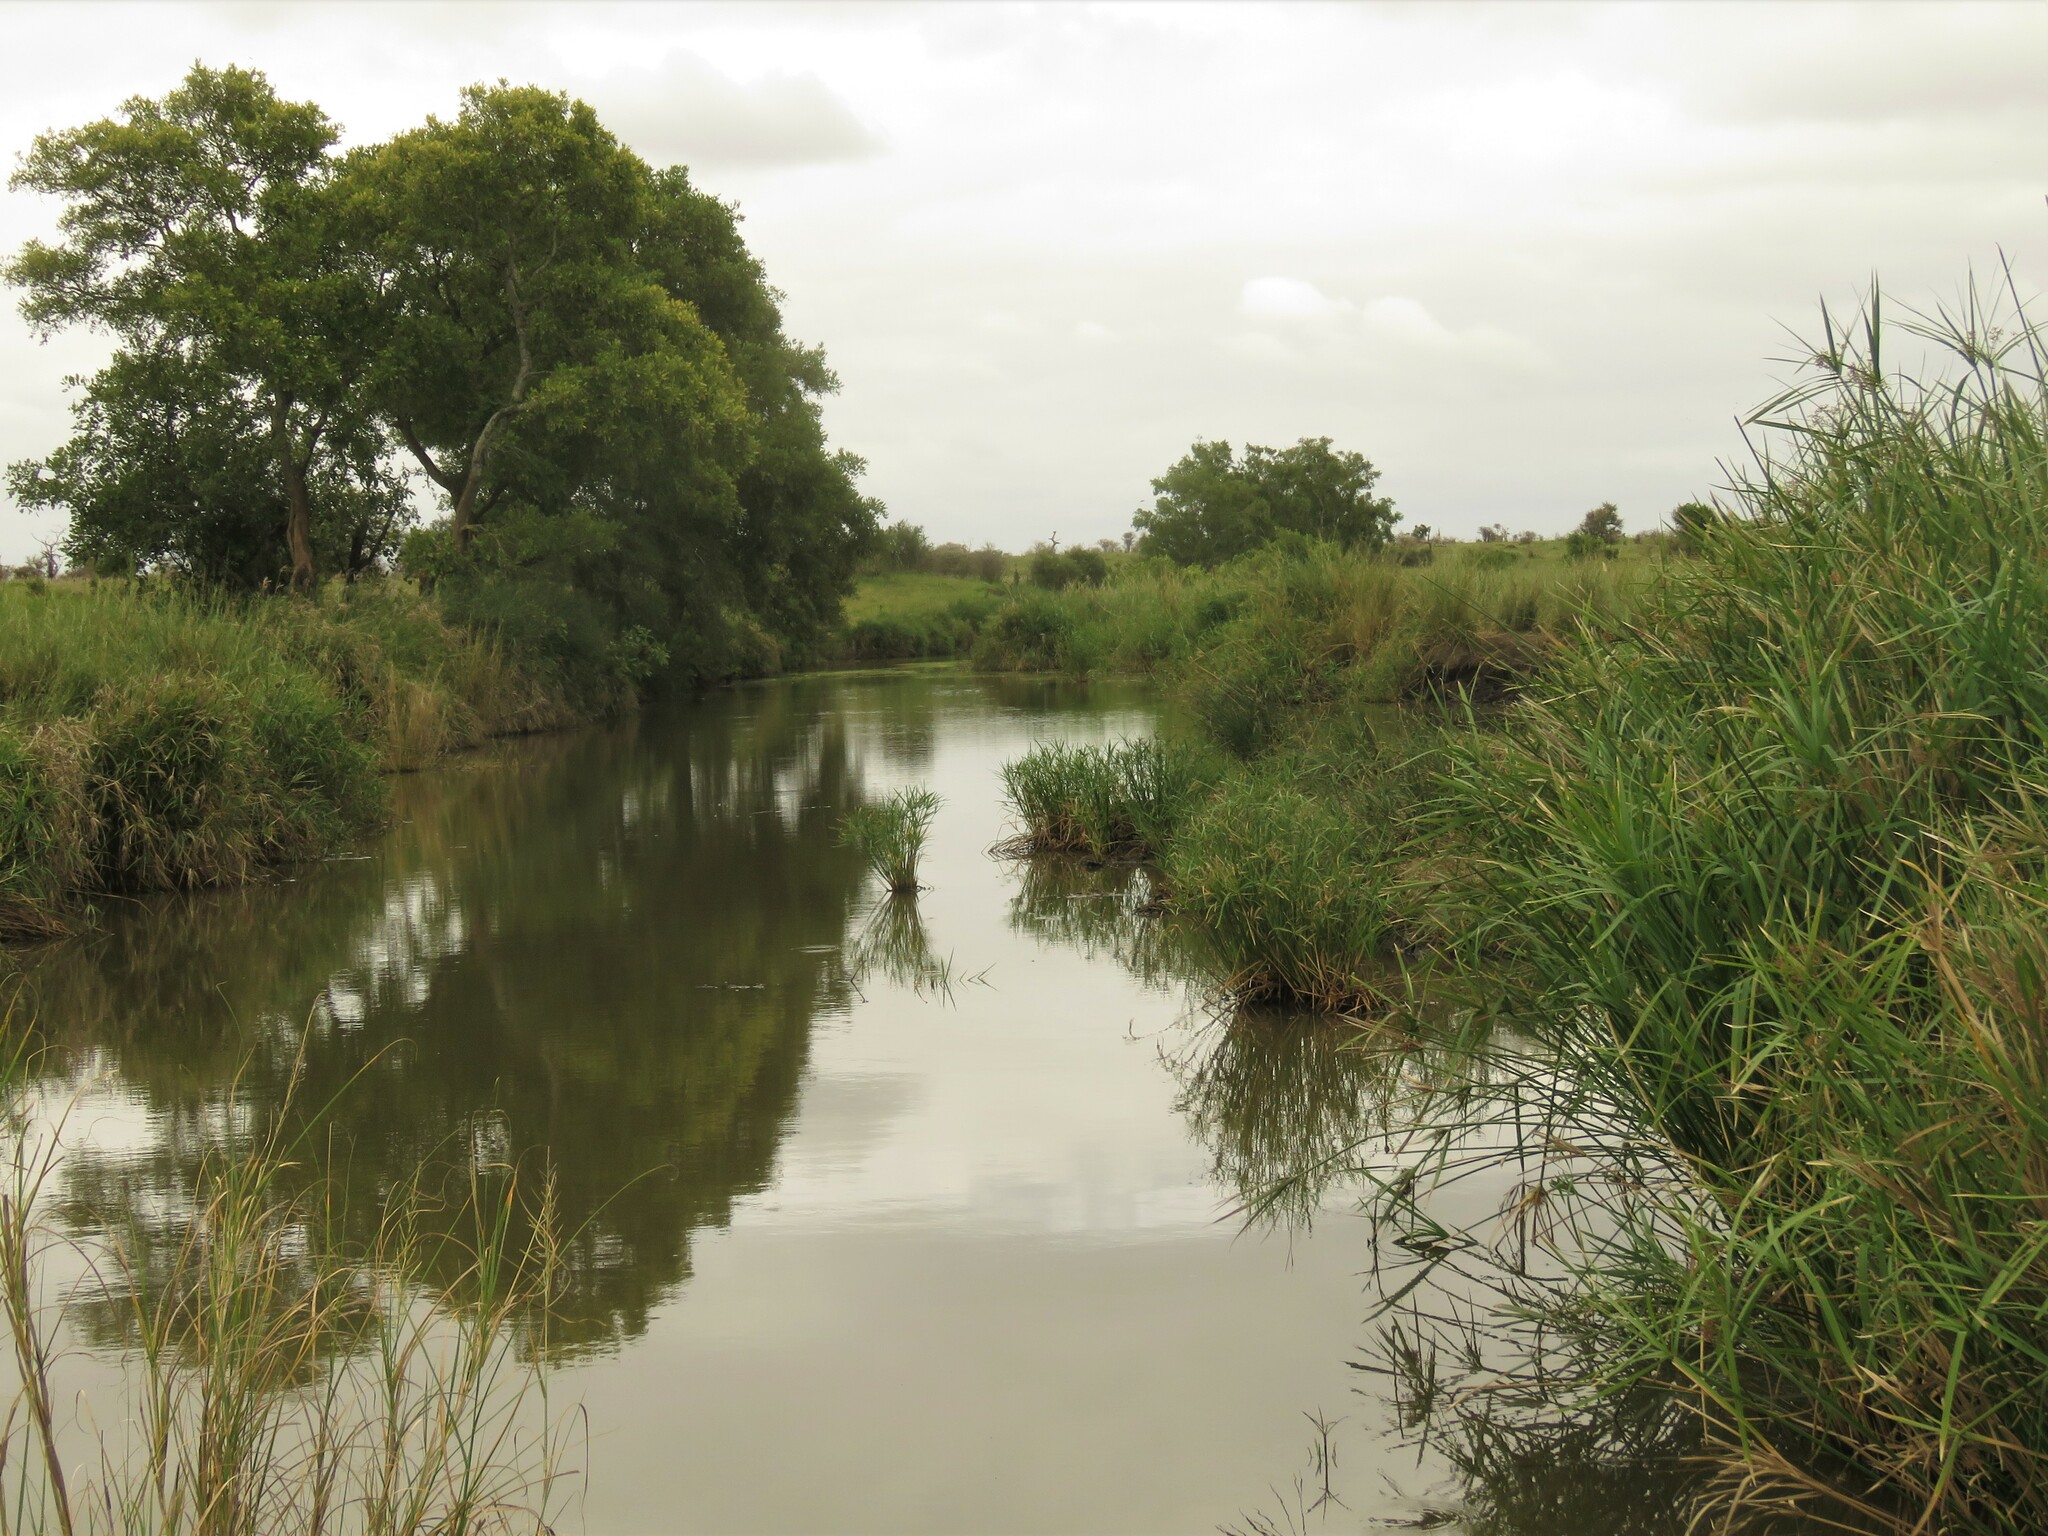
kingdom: Plantae
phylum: Tracheophyta
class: Liliopsida
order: Poales
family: Cyperaceae
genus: Cyperus
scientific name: Cyperus alternifolius
